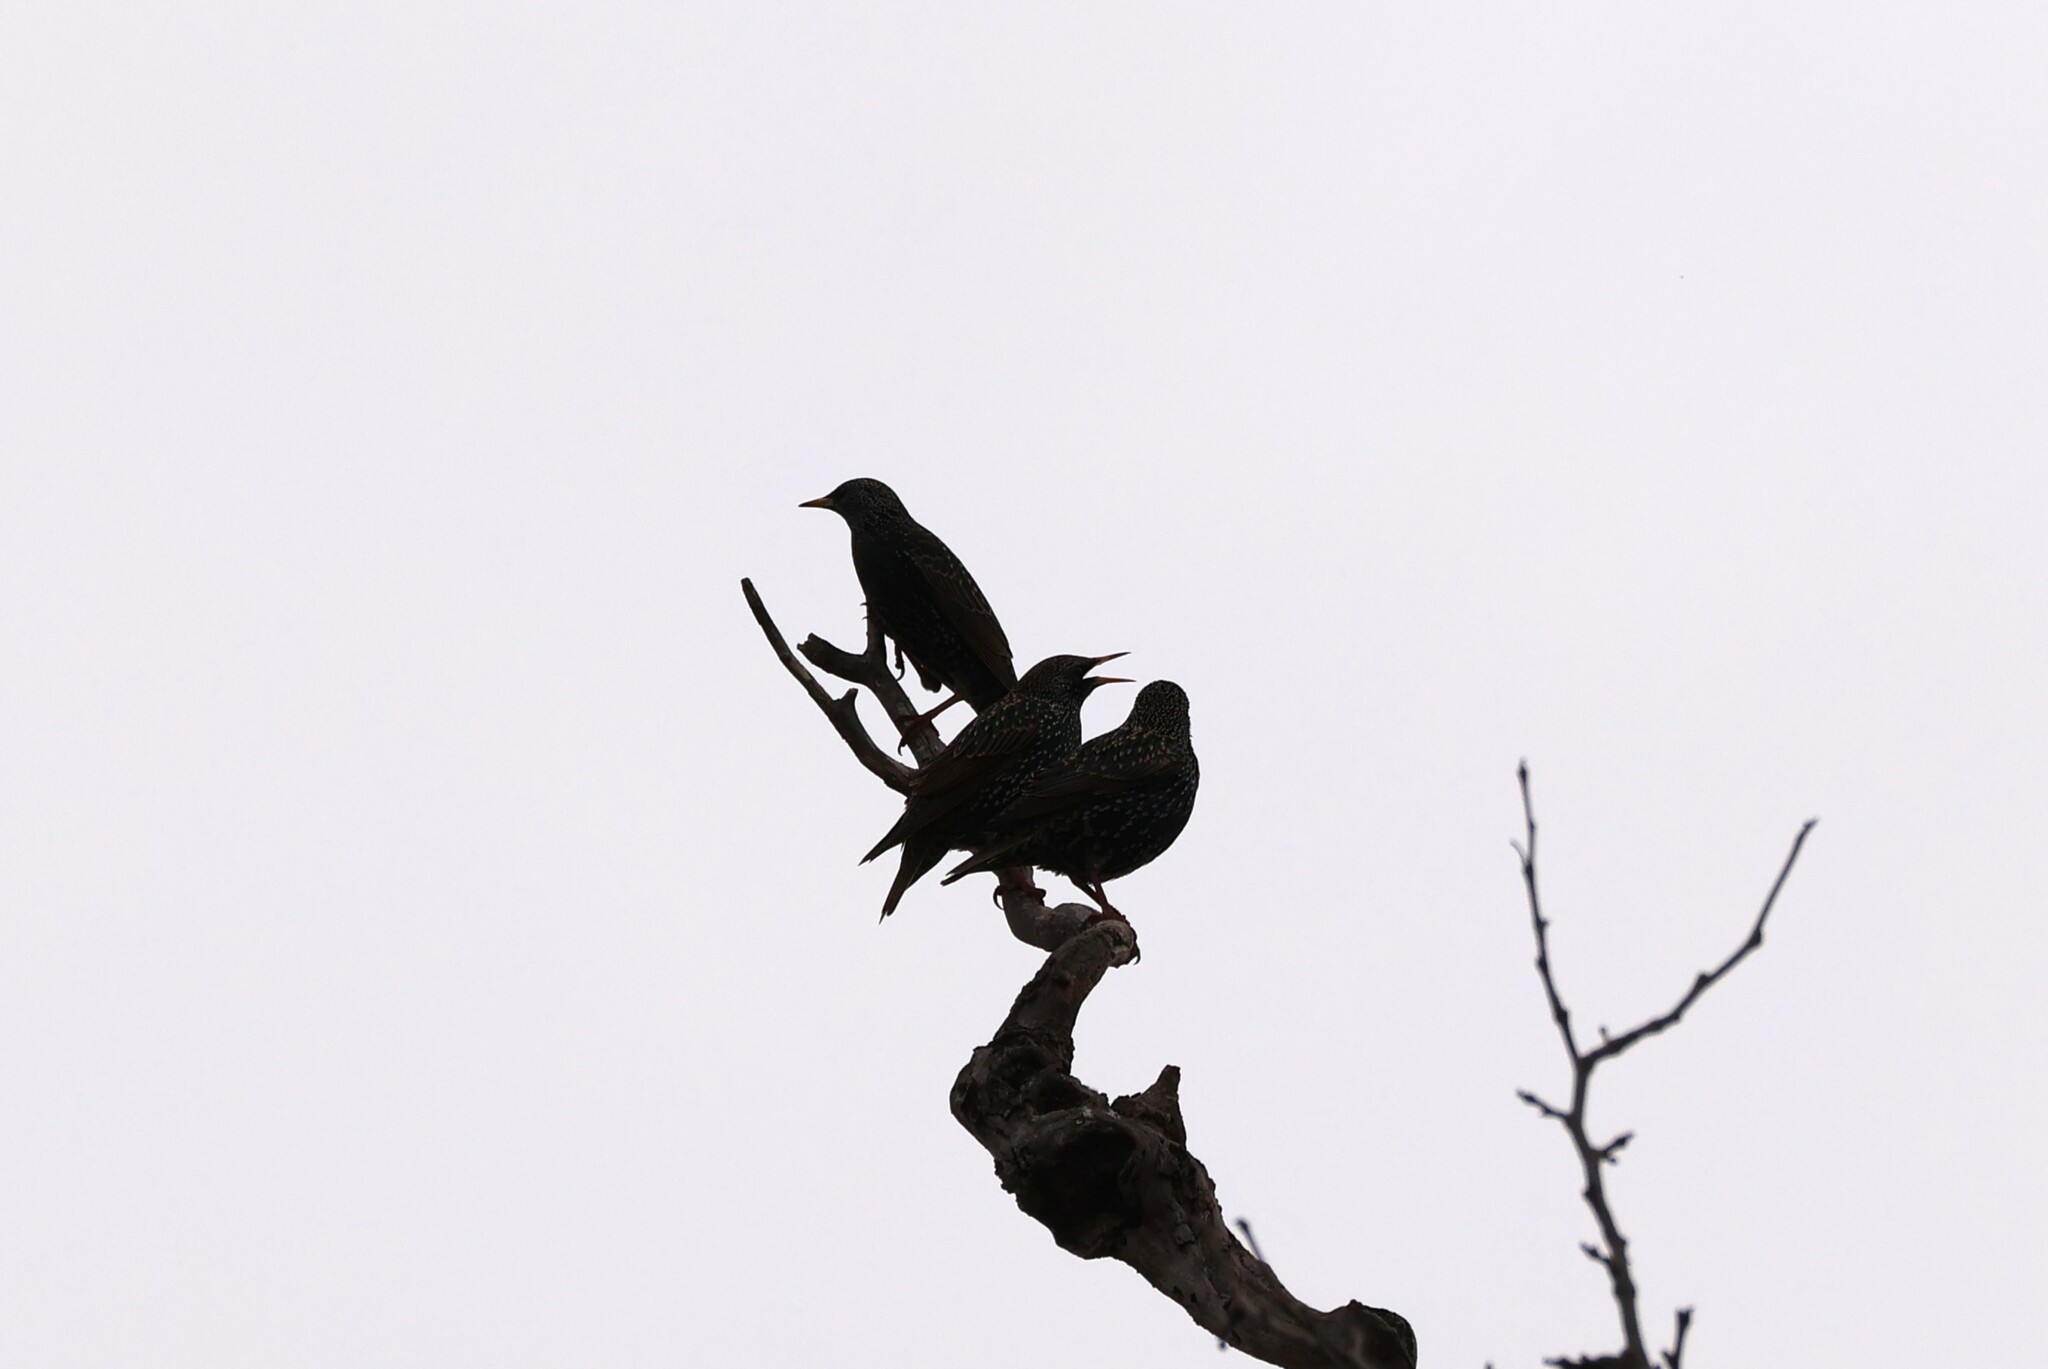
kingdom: Animalia
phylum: Chordata
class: Aves
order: Passeriformes
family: Sturnidae
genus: Sturnus
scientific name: Sturnus vulgaris
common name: Common starling
